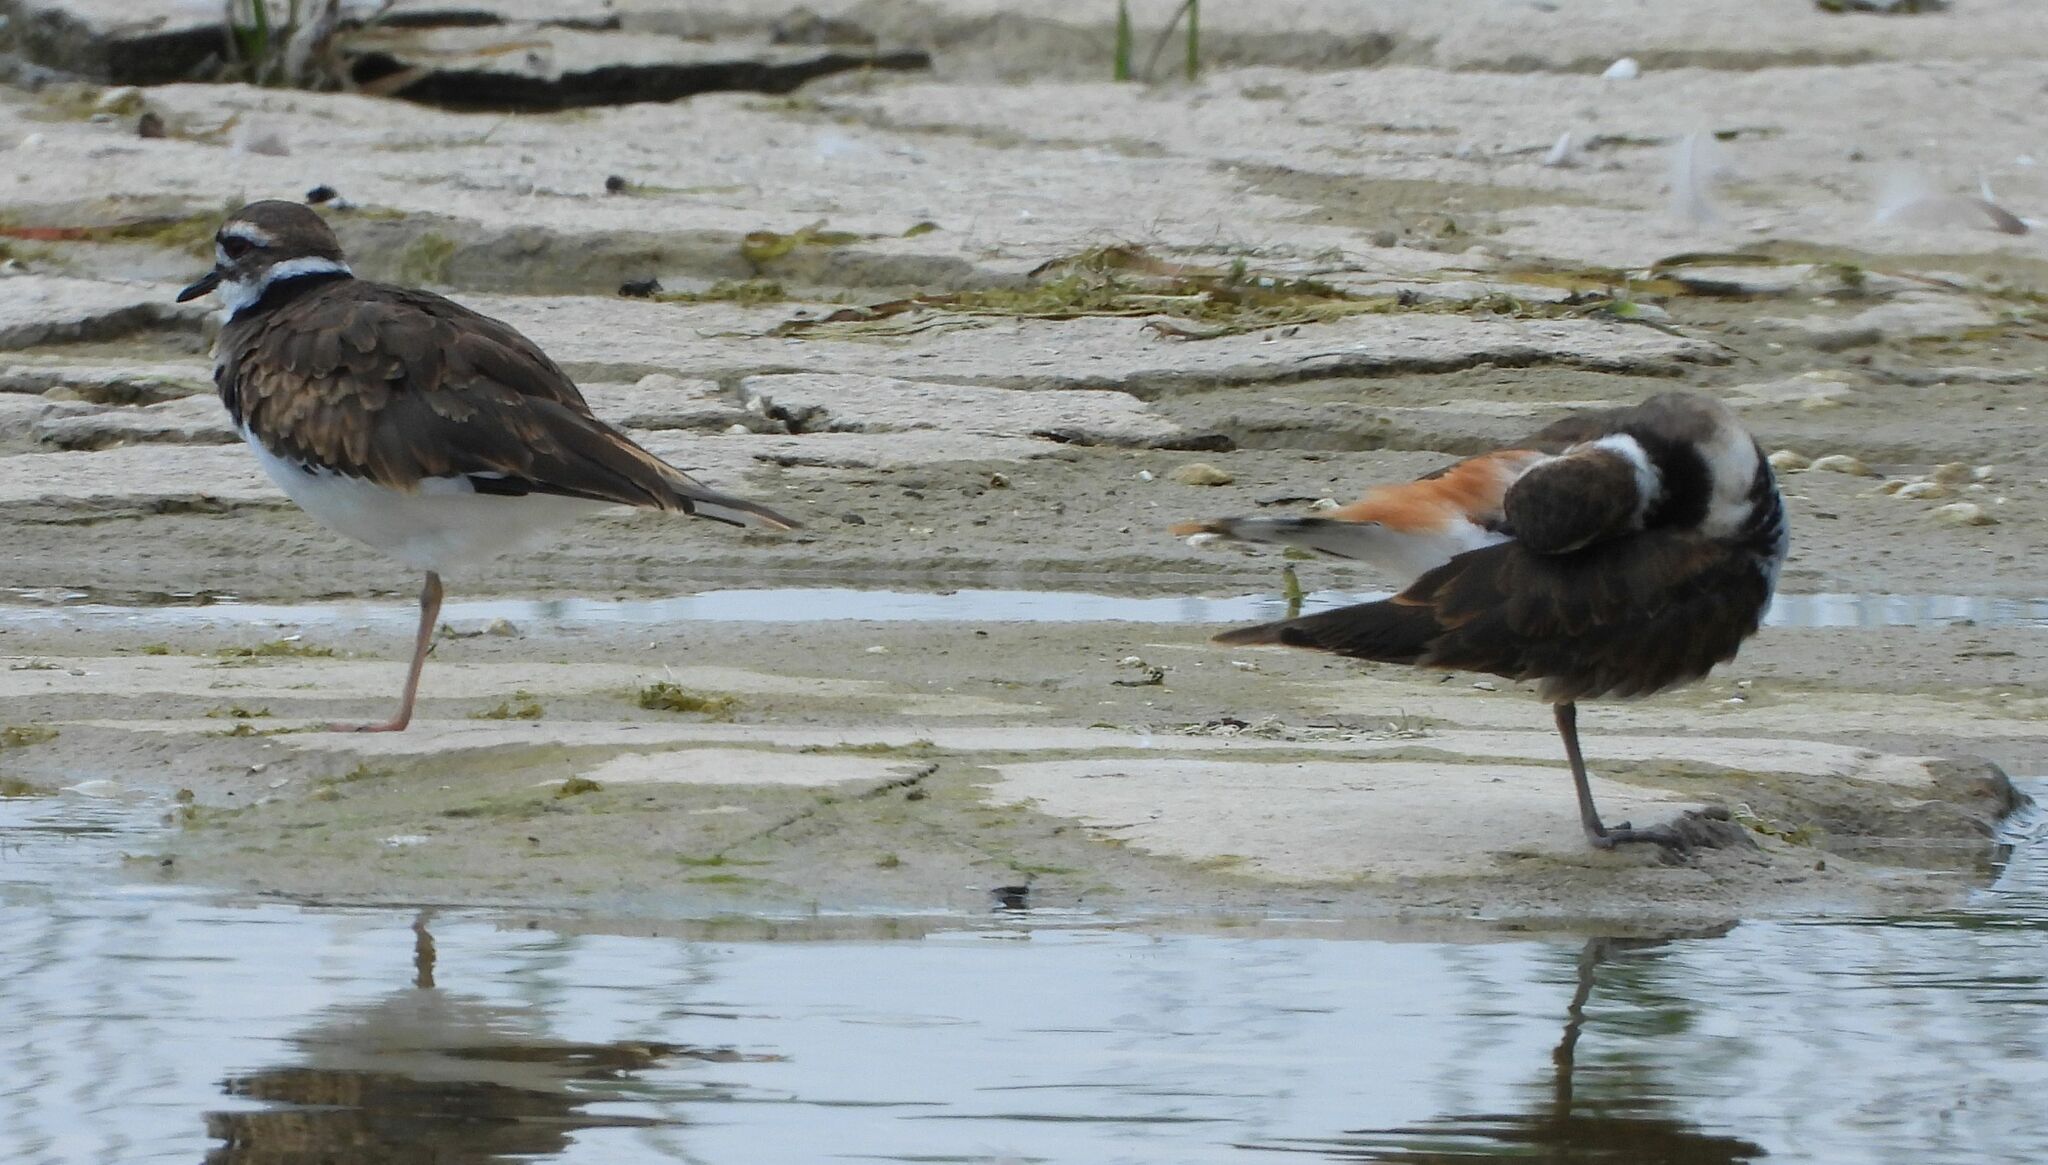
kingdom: Animalia
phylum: Chordata
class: Aves
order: Charadriiformes
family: Charadriidae
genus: Charadrius
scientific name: Charadrius vociferus
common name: Killdeer
